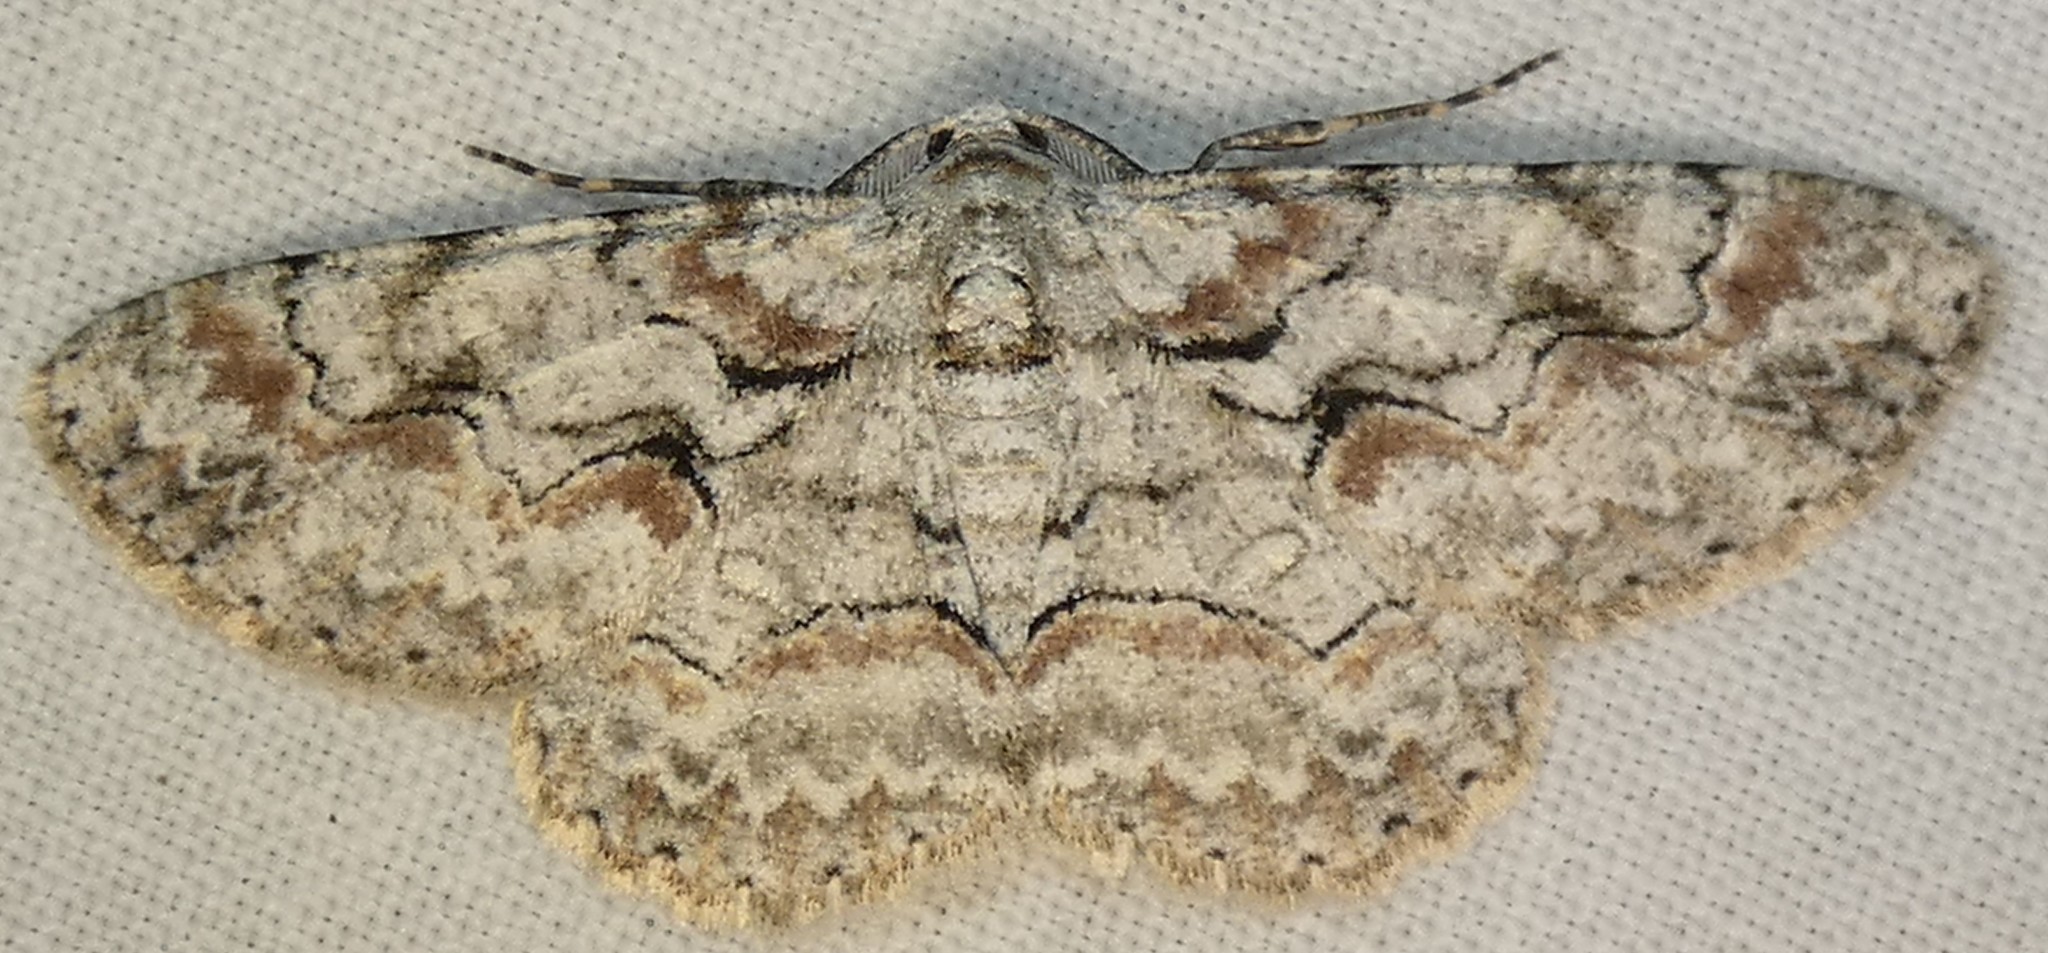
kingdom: Animalia
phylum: Arthropoda
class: Insecta
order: Lepidoptera
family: Geometridae
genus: Iridopsis
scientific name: Iridopsis defectaria
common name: Brown-shaded gray
